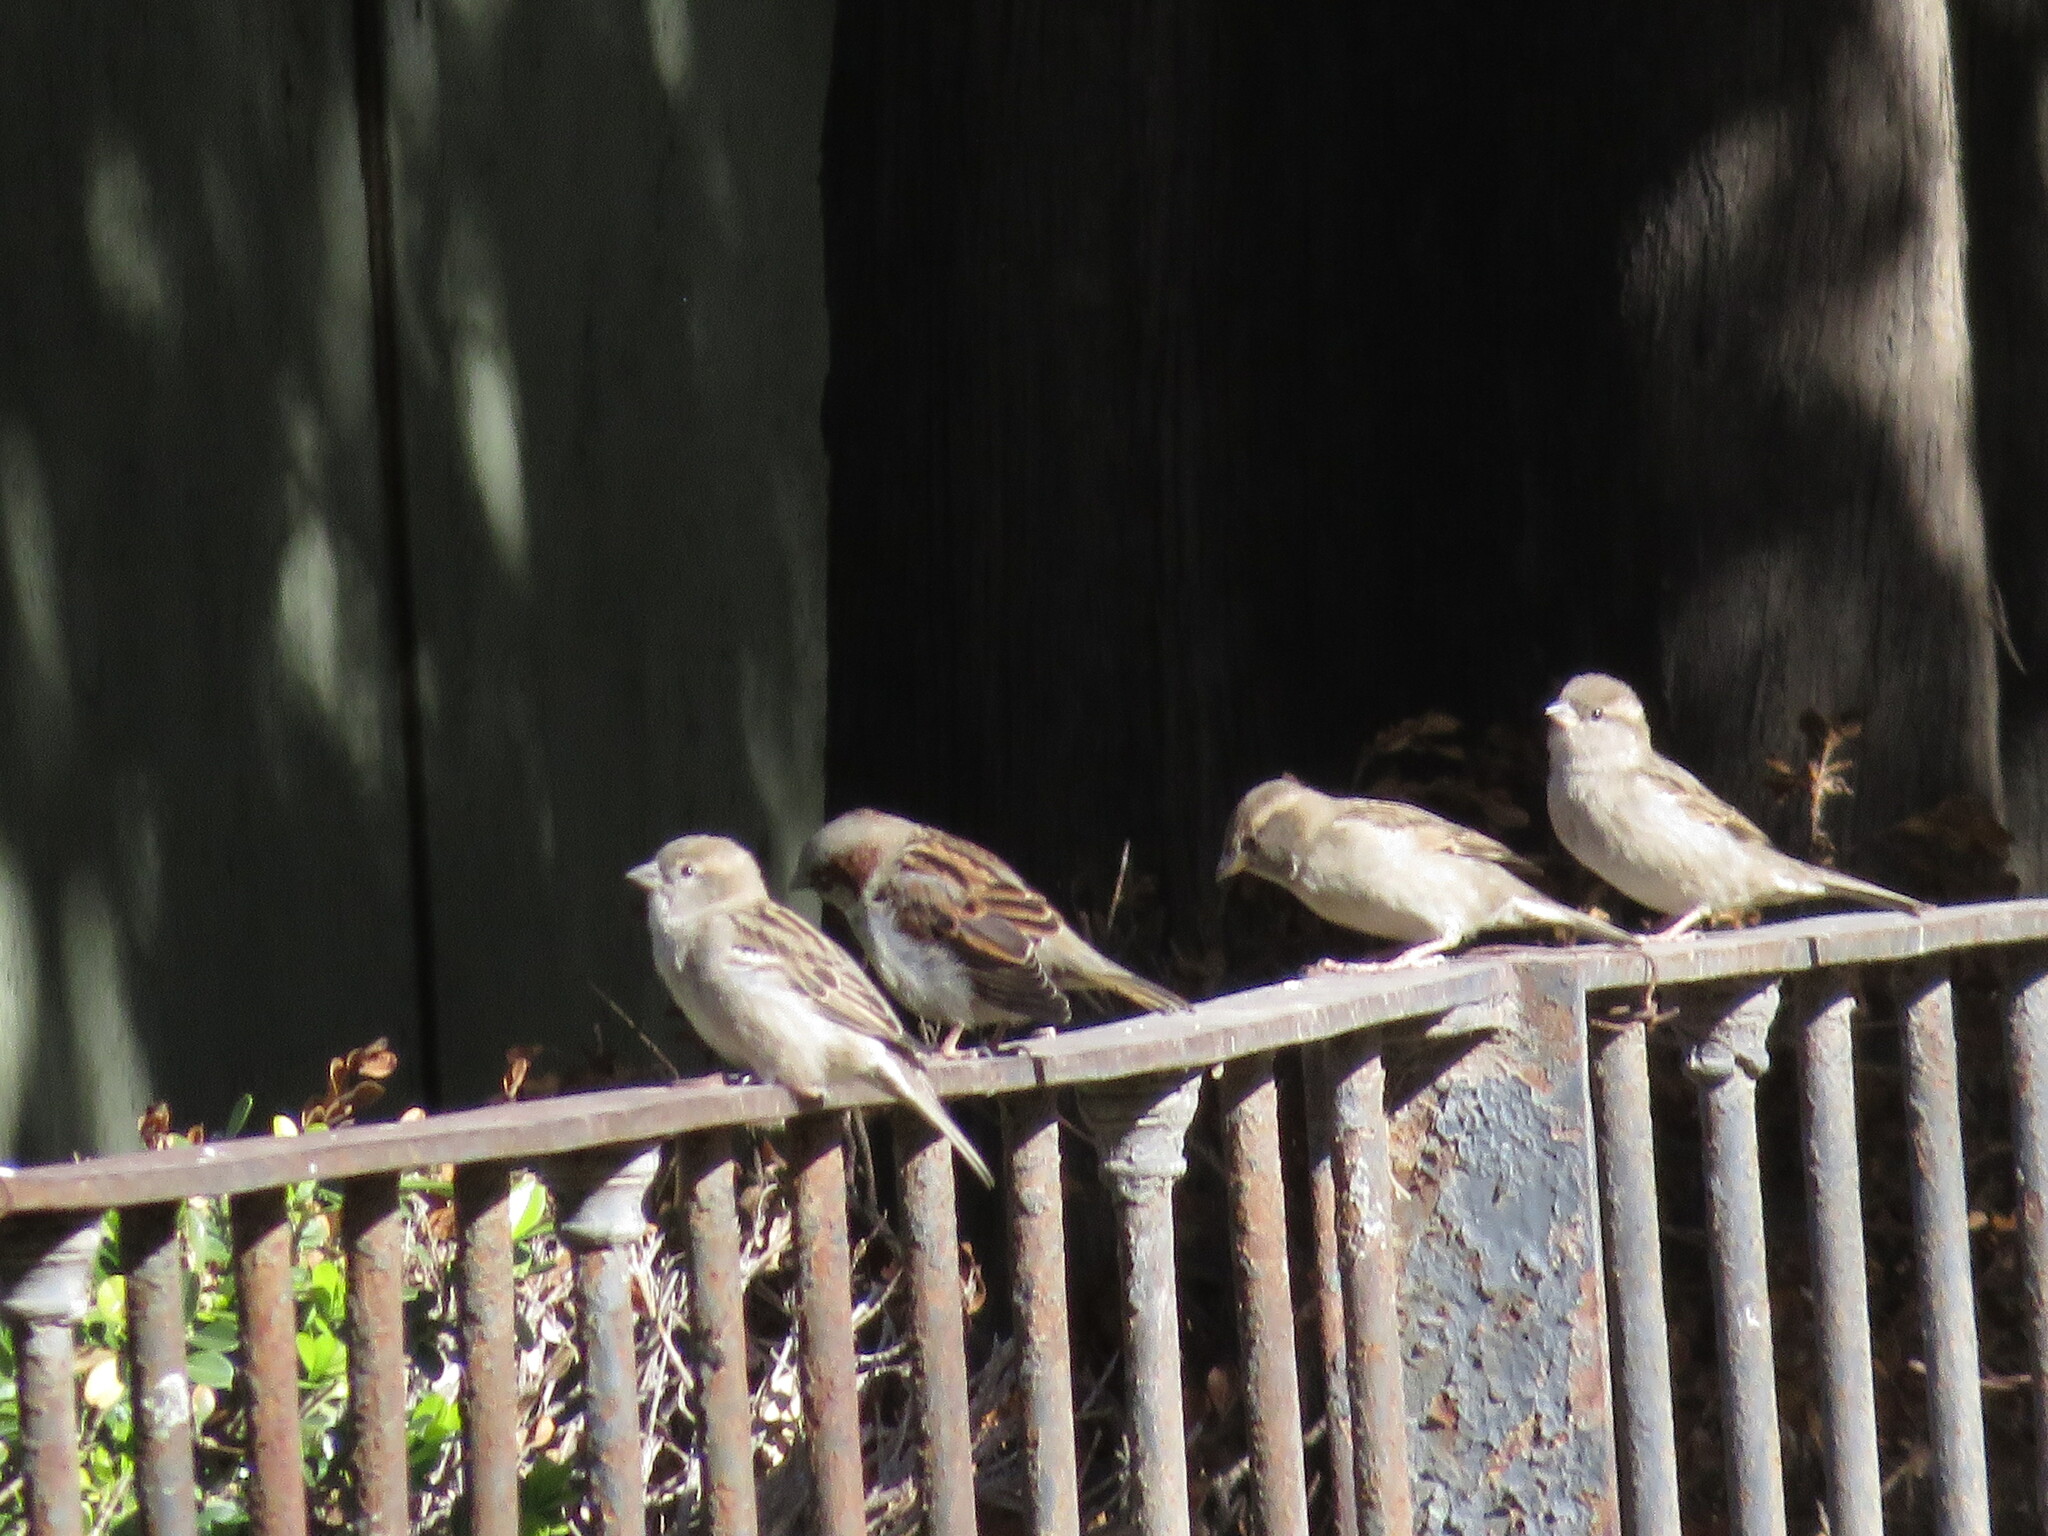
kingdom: Animalia
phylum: Chordata
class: Aves
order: Passeriformes
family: Passeridae
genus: Passer
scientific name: Passer domesticus
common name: House sparrow
